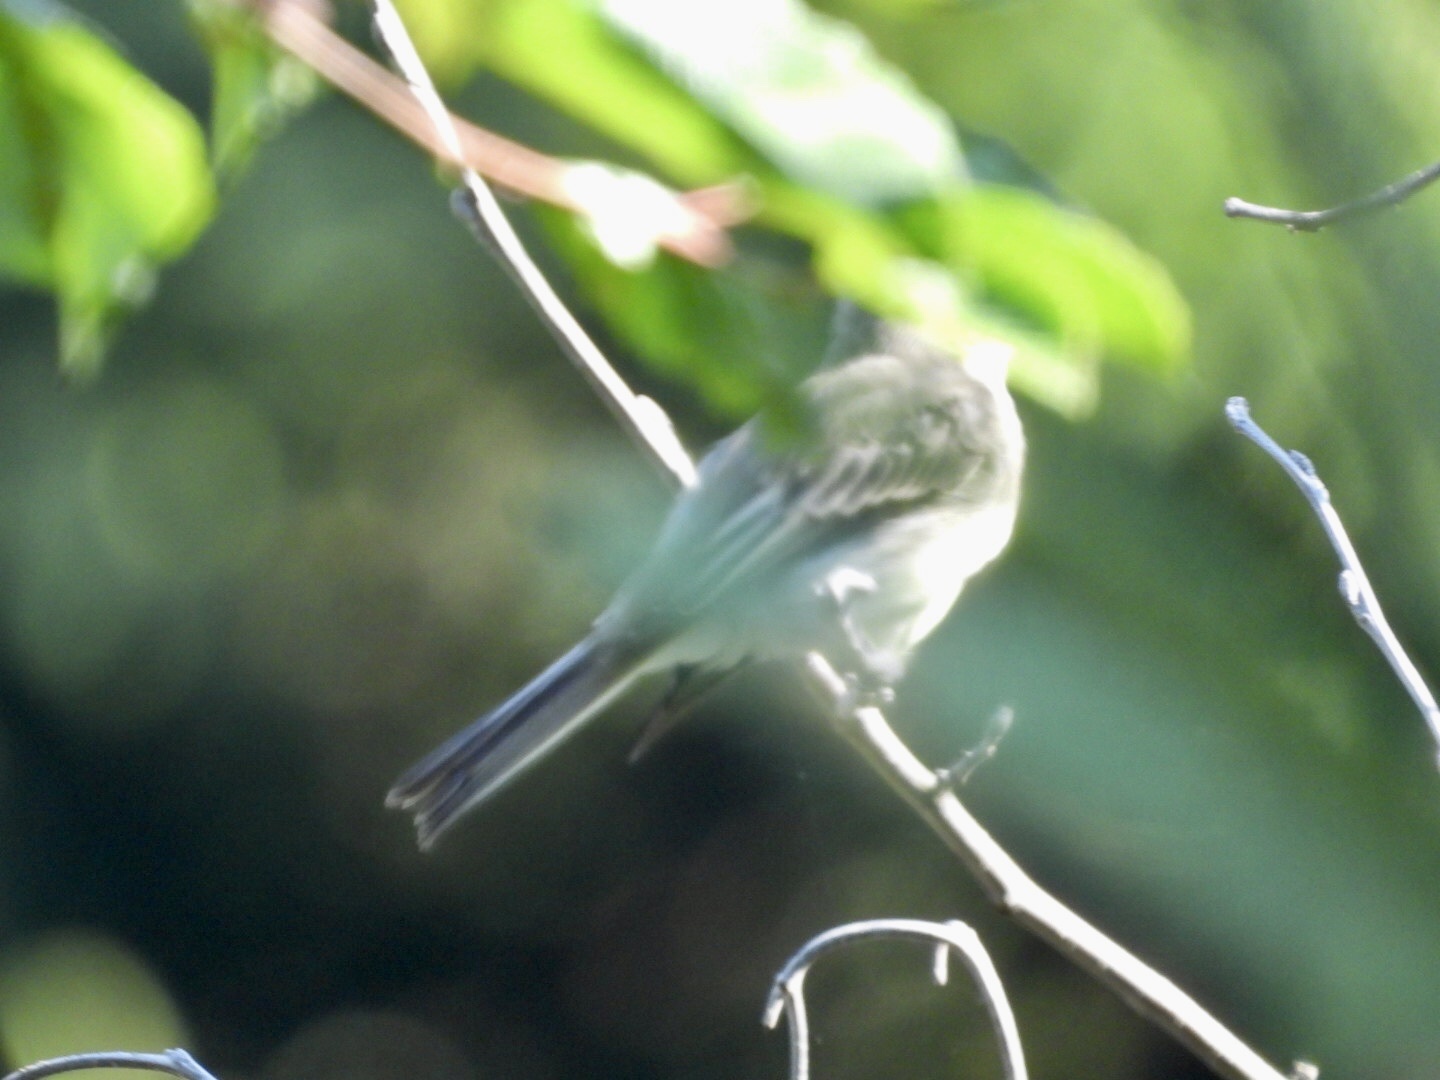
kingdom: Animalia
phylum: Chordata
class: Aves
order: Passeriformes
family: Tyrannidae
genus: Sayornis
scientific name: Sayornis phoebe
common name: Eastern phoebe
